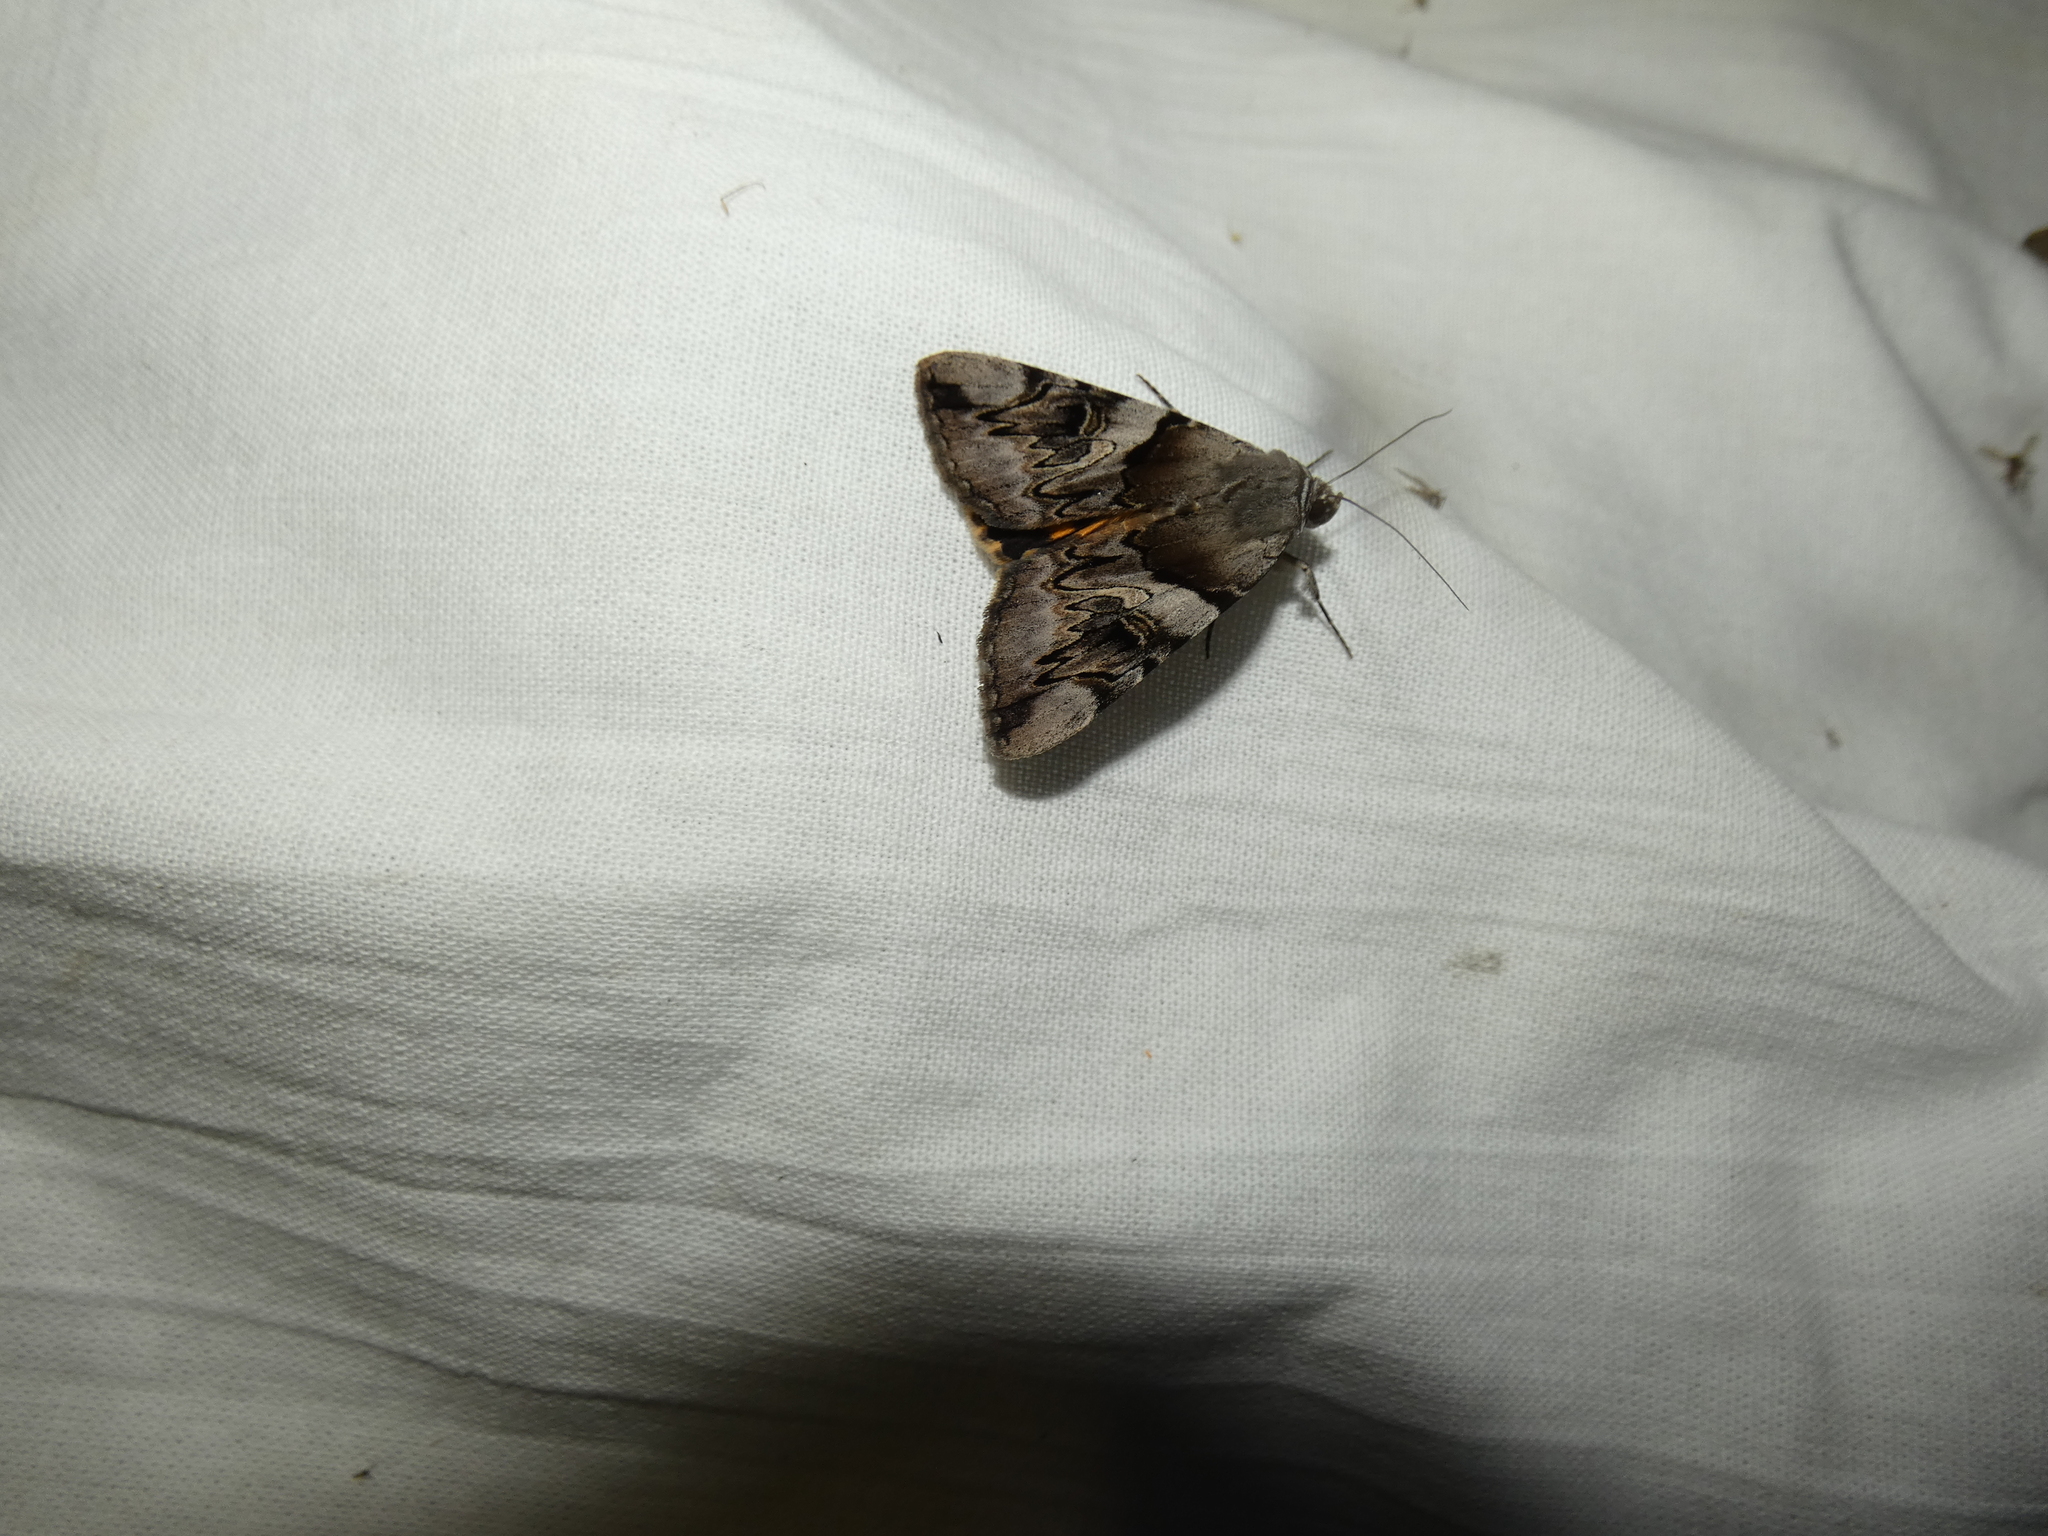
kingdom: Animalia
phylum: Arthropoda
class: Insecta
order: Lepidoptera
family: Erebidae
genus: Catocala
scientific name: Catocala fulminea
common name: Yellow bands underwing
